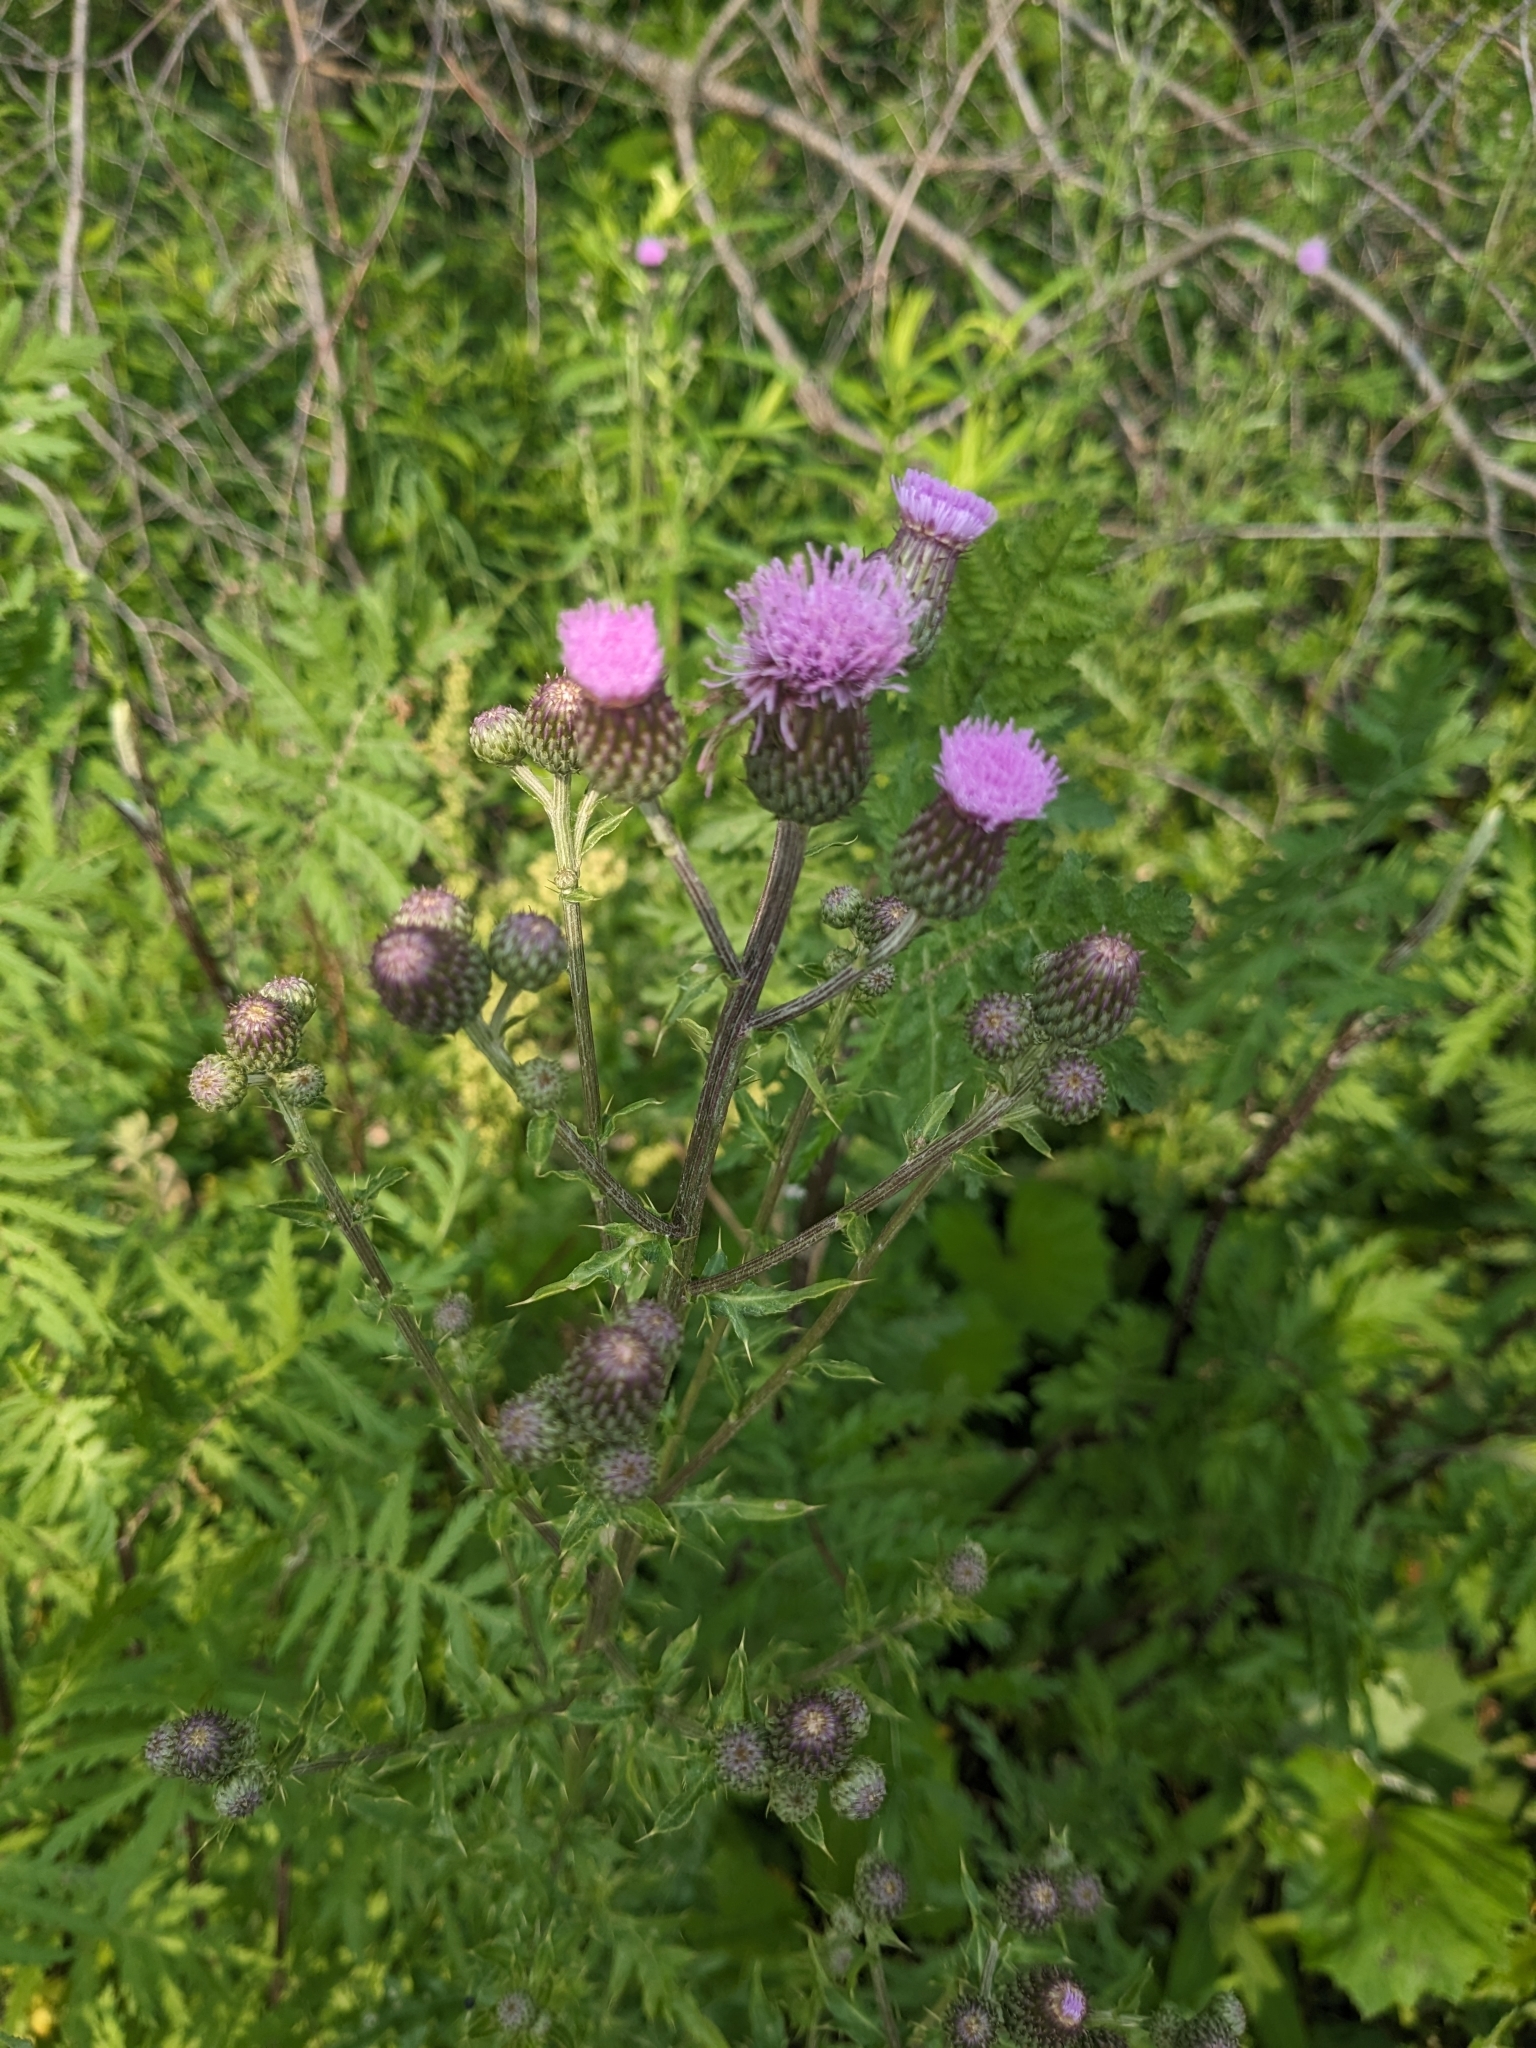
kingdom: Plantae
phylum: Tracheophyta
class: Magnoliopsida
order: Asterales
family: Asteraceae
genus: Cirsium
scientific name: Cirsium arvense
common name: Creeping thistle
